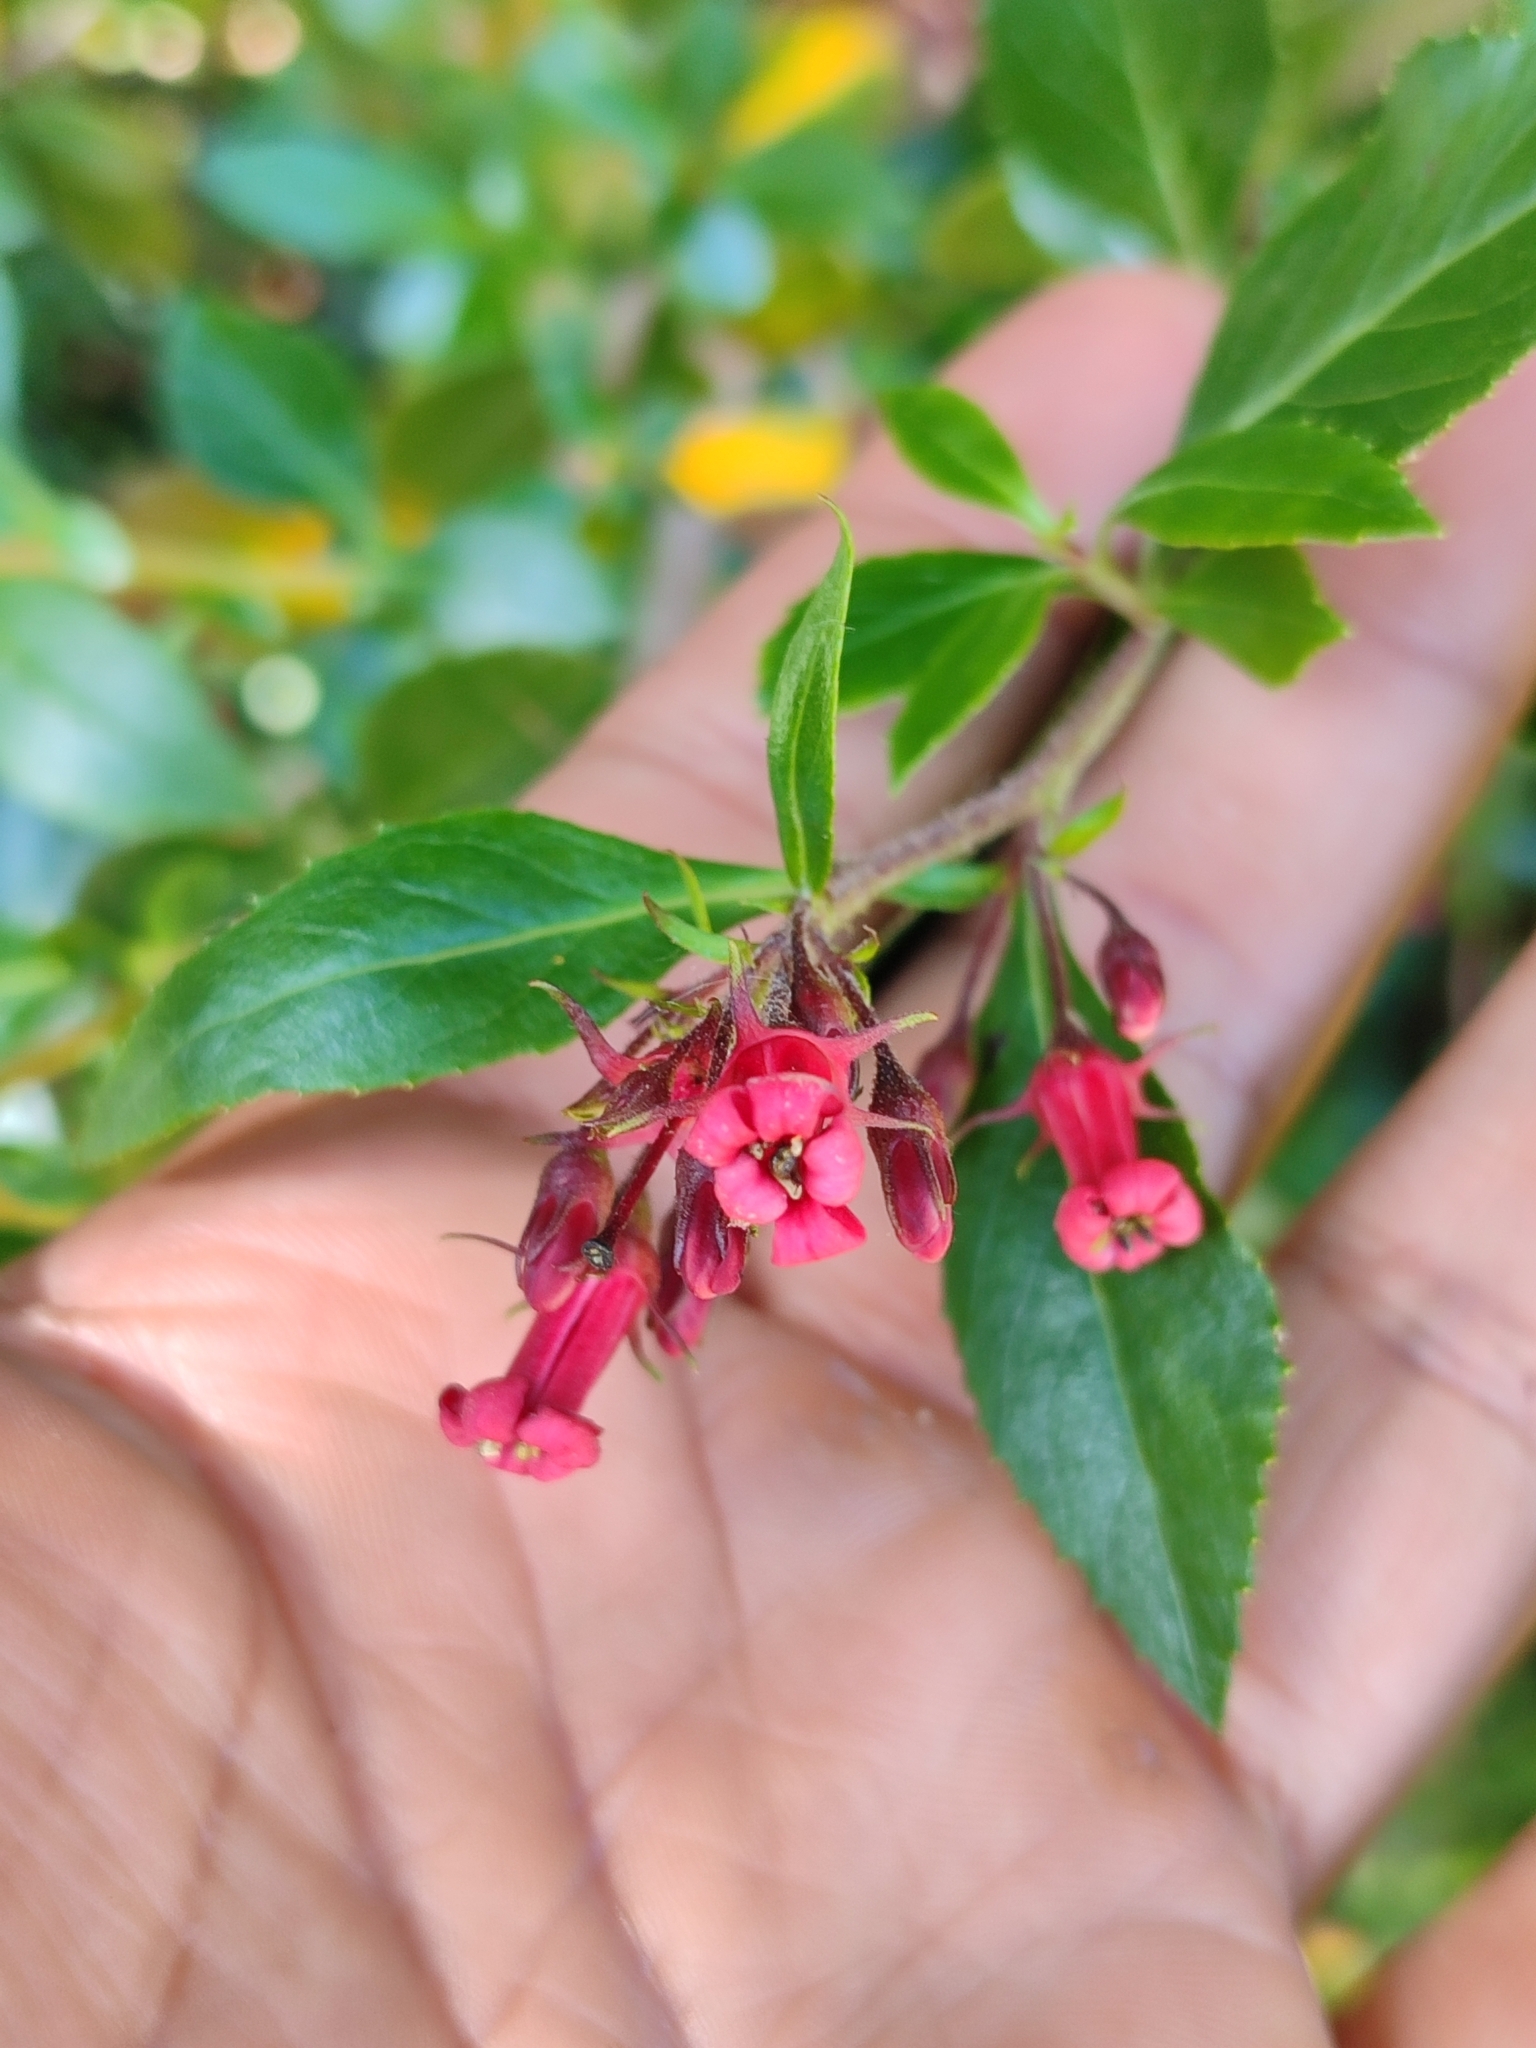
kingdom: Plantae
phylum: Tracheophyta
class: Magnoliopsida
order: Escalloniales
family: Escalloniaceae
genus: Escallonia
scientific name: Escallonia rubra
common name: Redclaws
